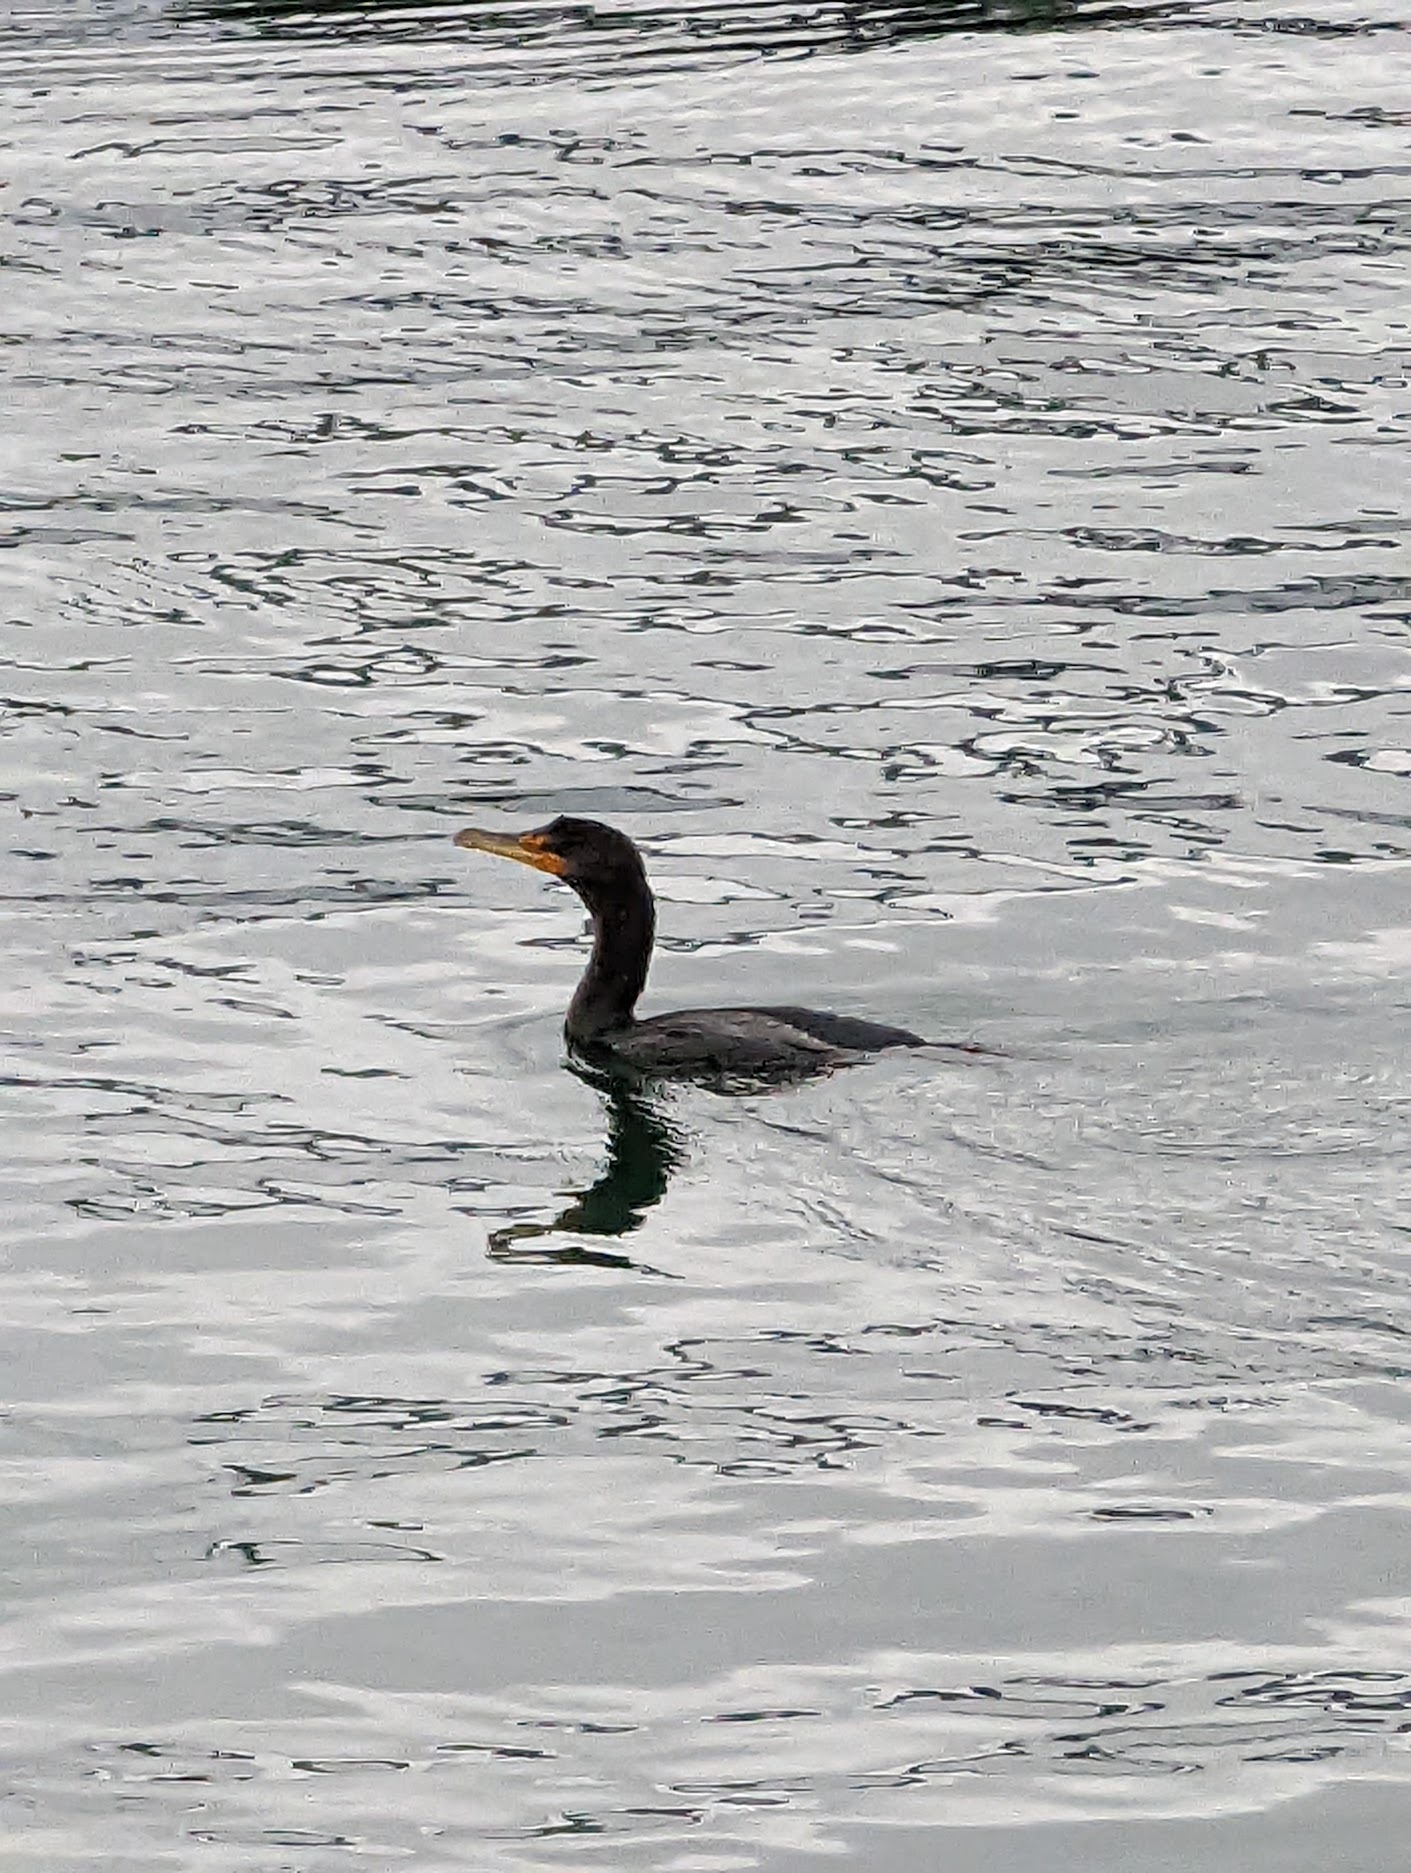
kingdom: Animalia
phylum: Chordata
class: Aves
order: Suliformes
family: Phalacrocoracidae
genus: Phalacrocorax
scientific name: Phalacrocorax auritus
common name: Double-crested cormorant
